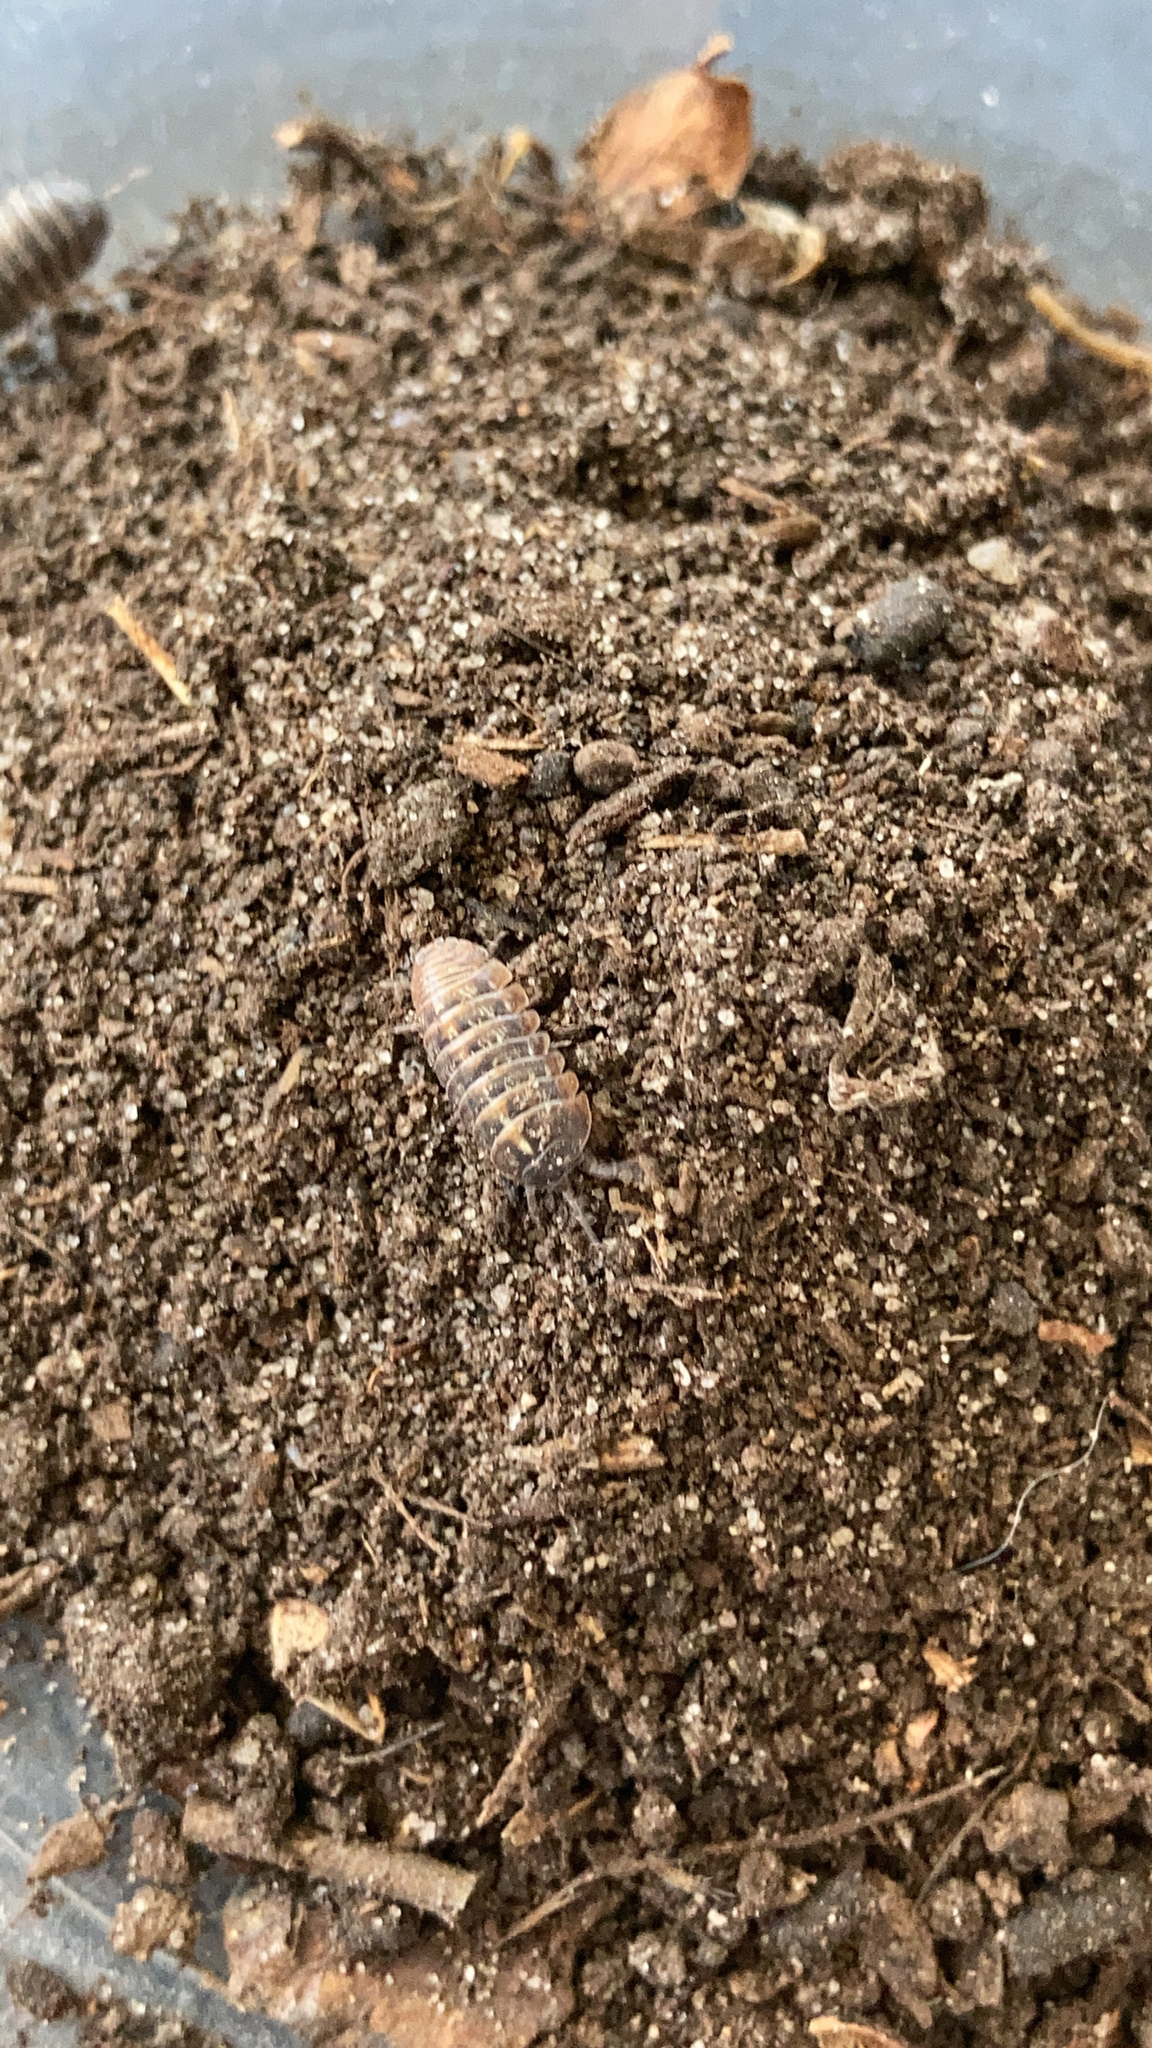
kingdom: Animalia
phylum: Arthropoda
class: Malacostraca
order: Isopoda
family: Armadillidiidae
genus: Armadillidium
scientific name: Armadillidium vulgare
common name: Common pill woodlouse
